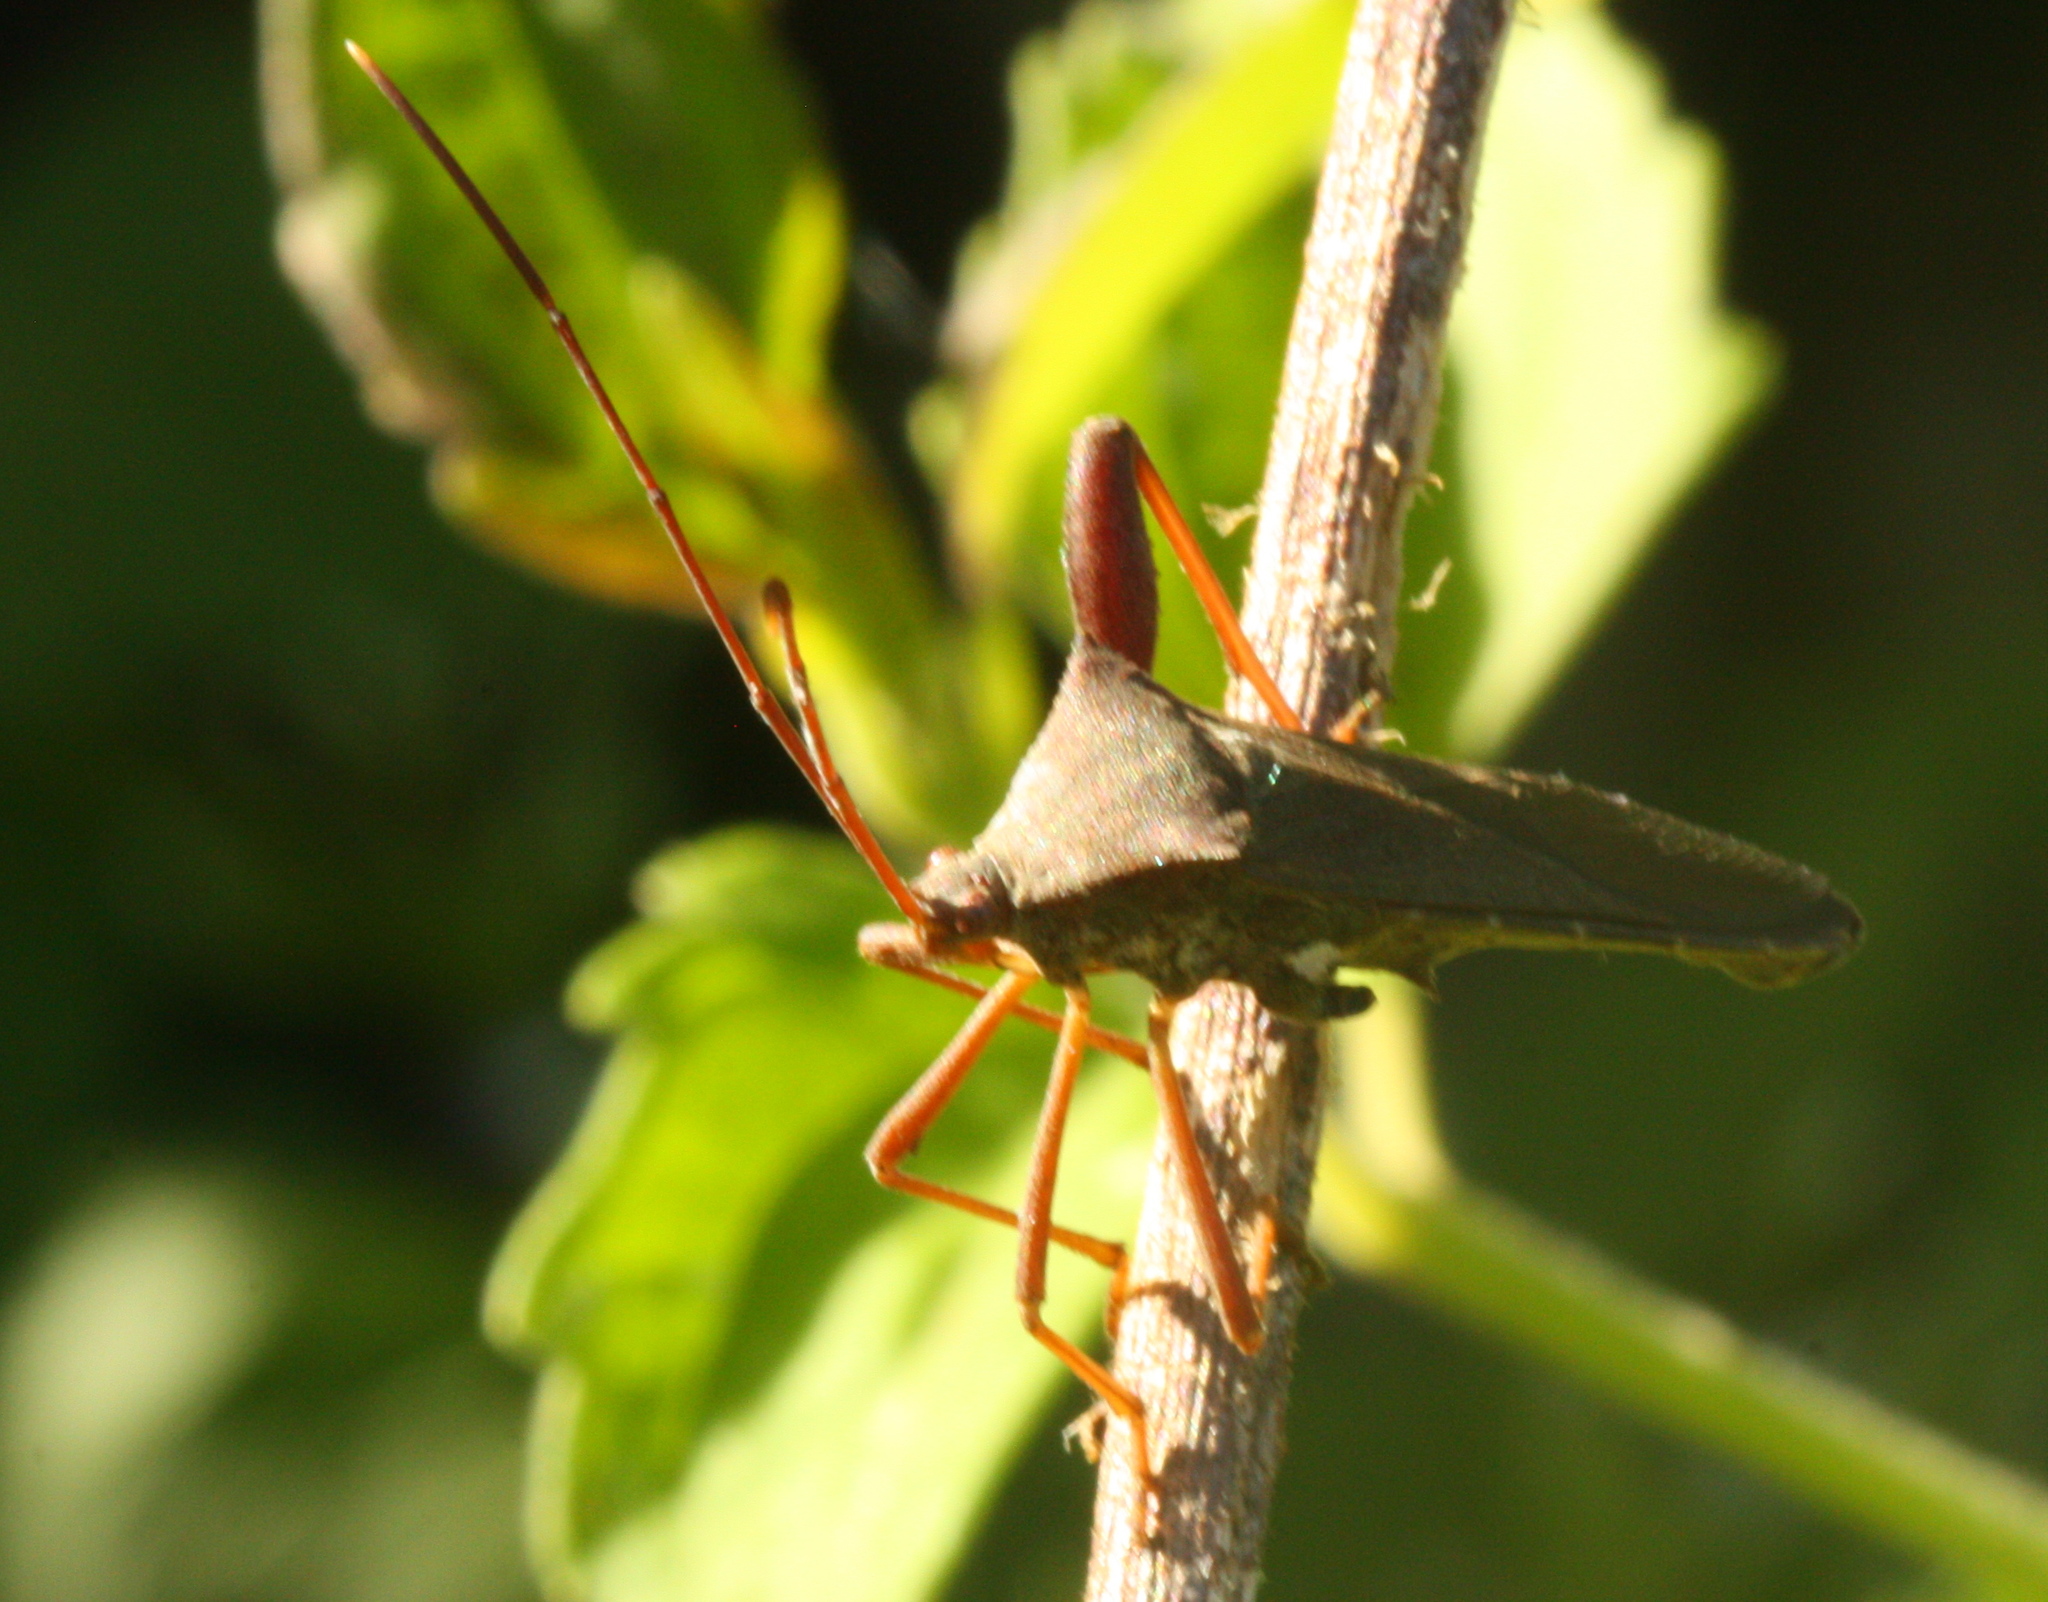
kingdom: Animalia
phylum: Arthropoda
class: Insecta
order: Hemiptera
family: Coreidae
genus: Mictis
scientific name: Mictis longicornis
